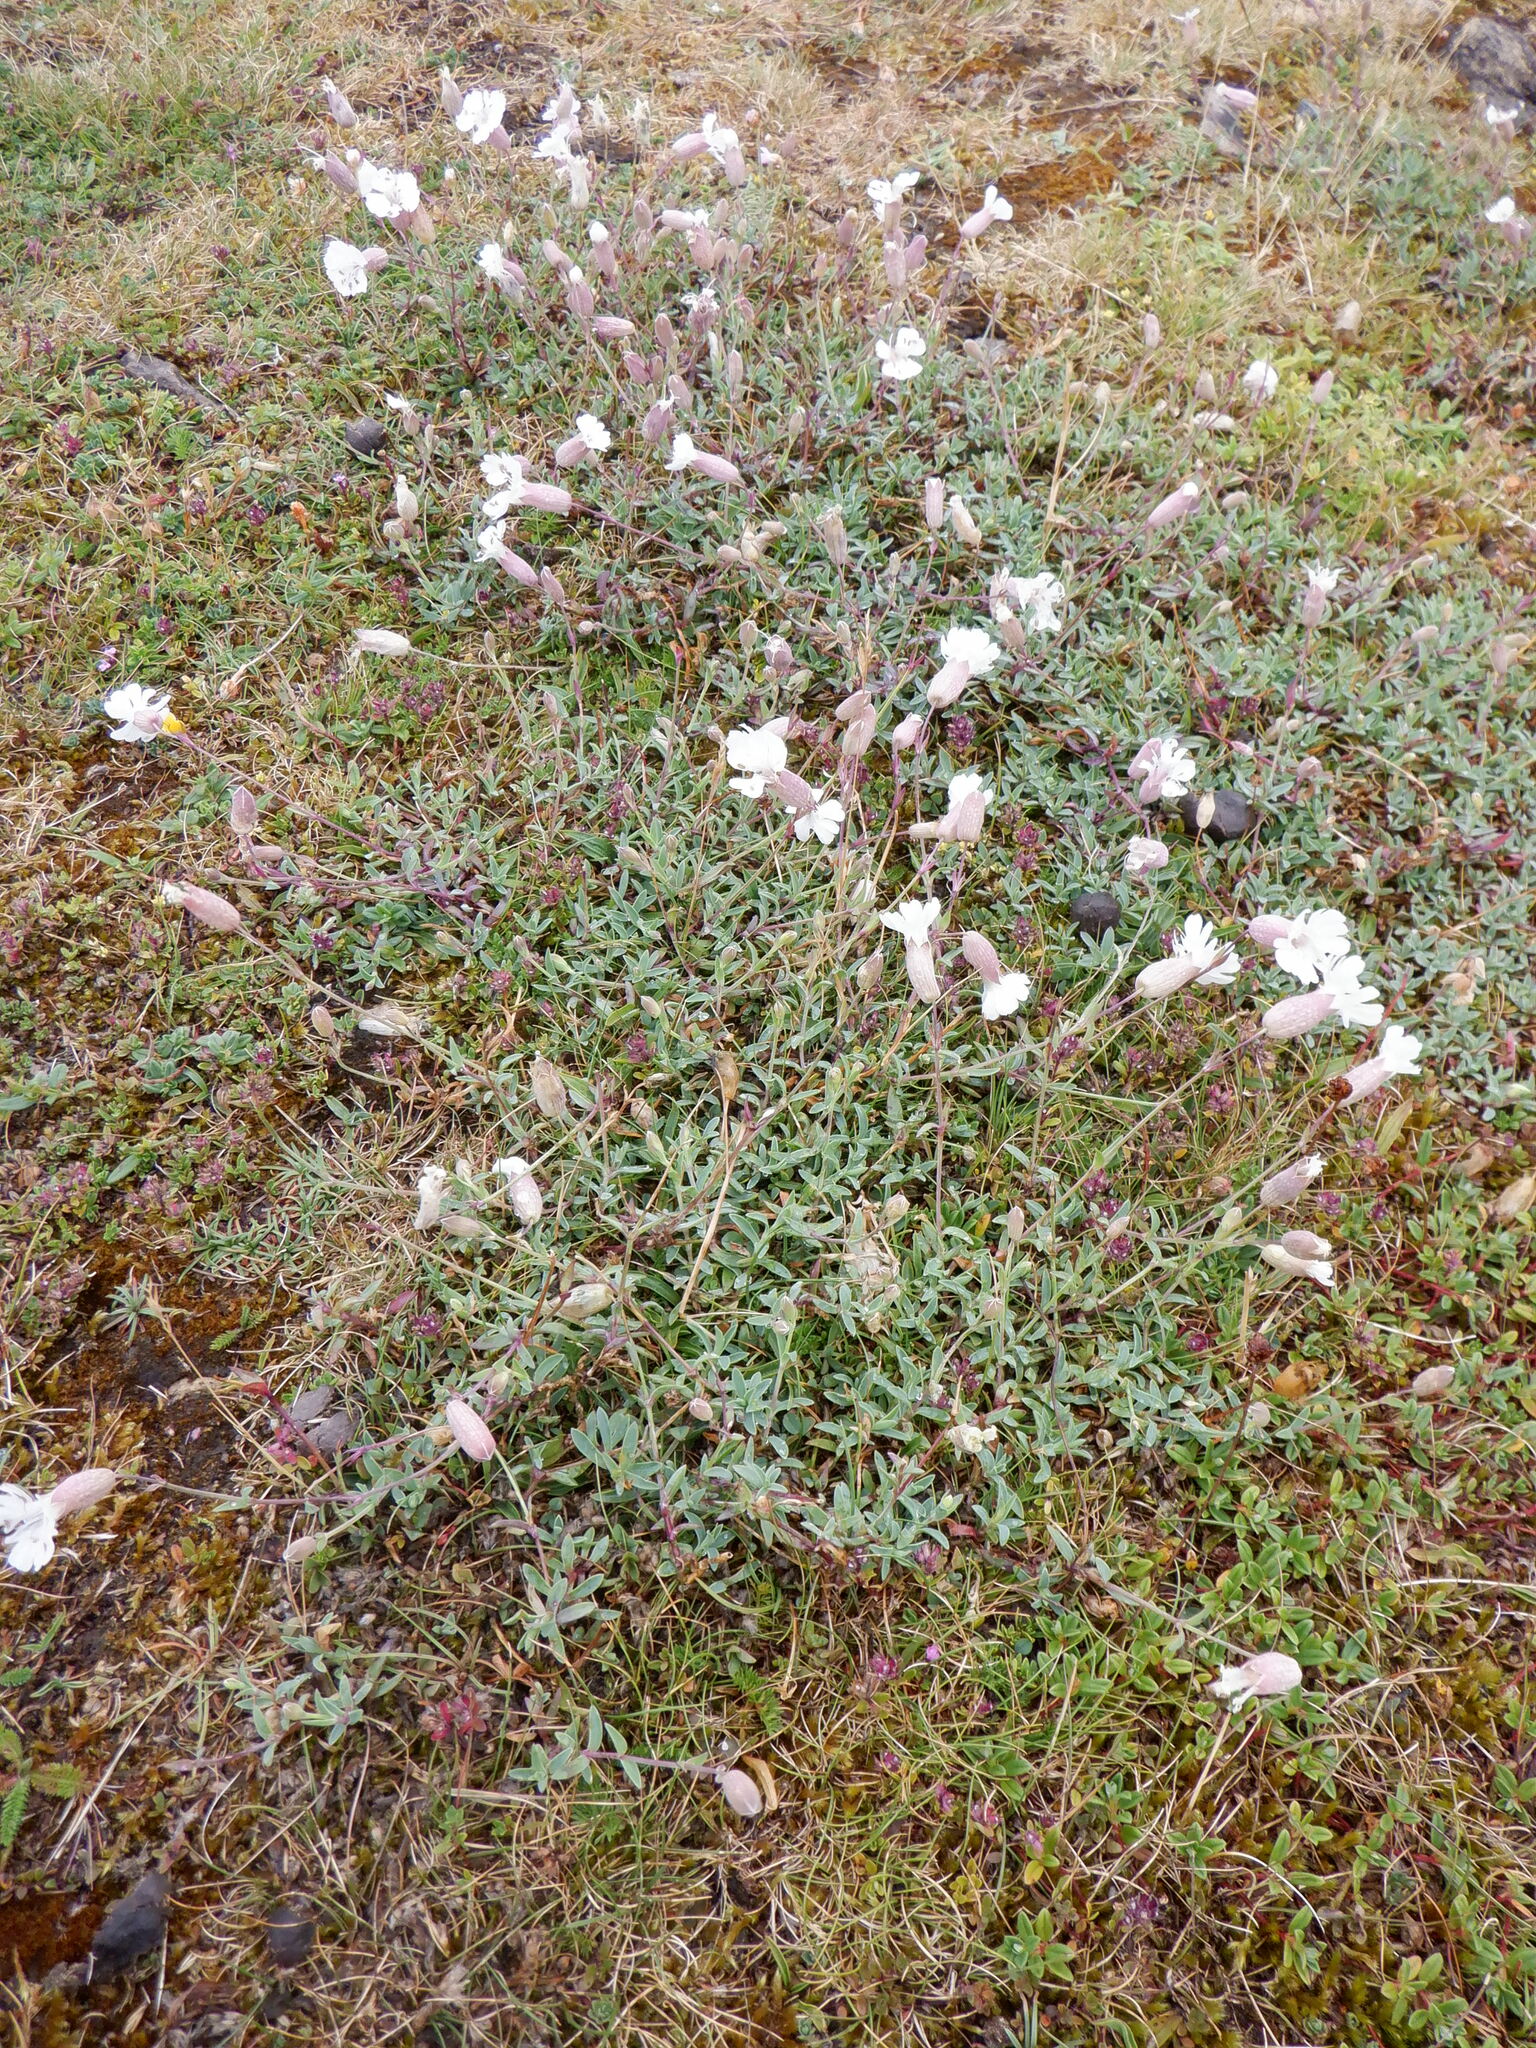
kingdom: Plantae
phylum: Tracheophyta
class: Magnoliopsida
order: Caryophyllales
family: Caryophyllaceae
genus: Silene
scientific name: Silene uniflora
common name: Sea campion
